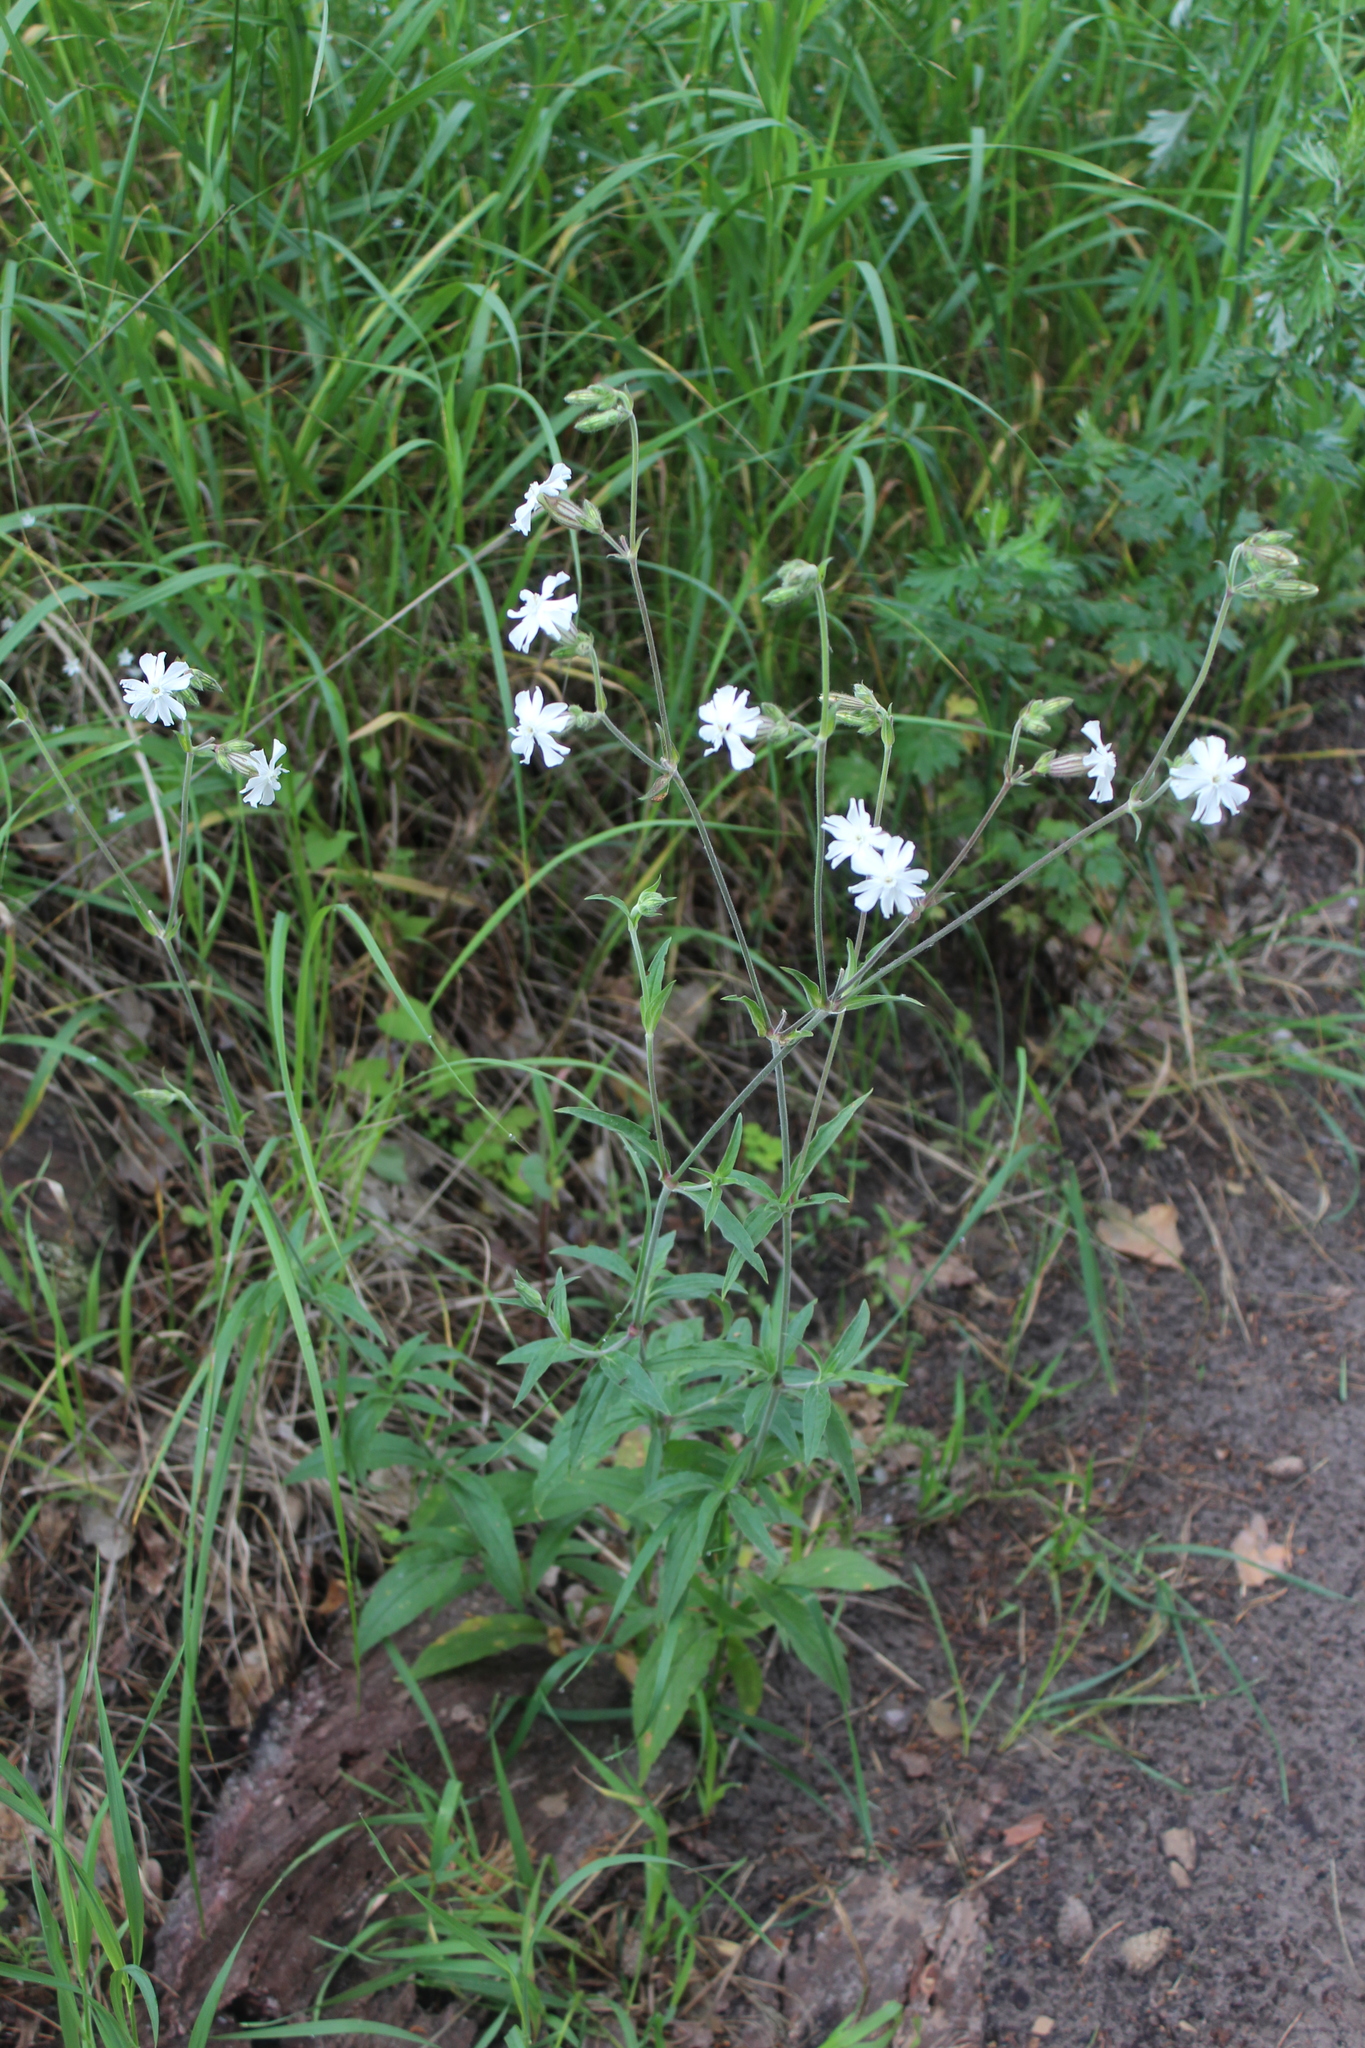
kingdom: Plantae
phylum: Tracheophyta
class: Magnoliopsida
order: Caryophyllales
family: Caryophyllaceae
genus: Silene
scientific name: Silene latifolia
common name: White campion
